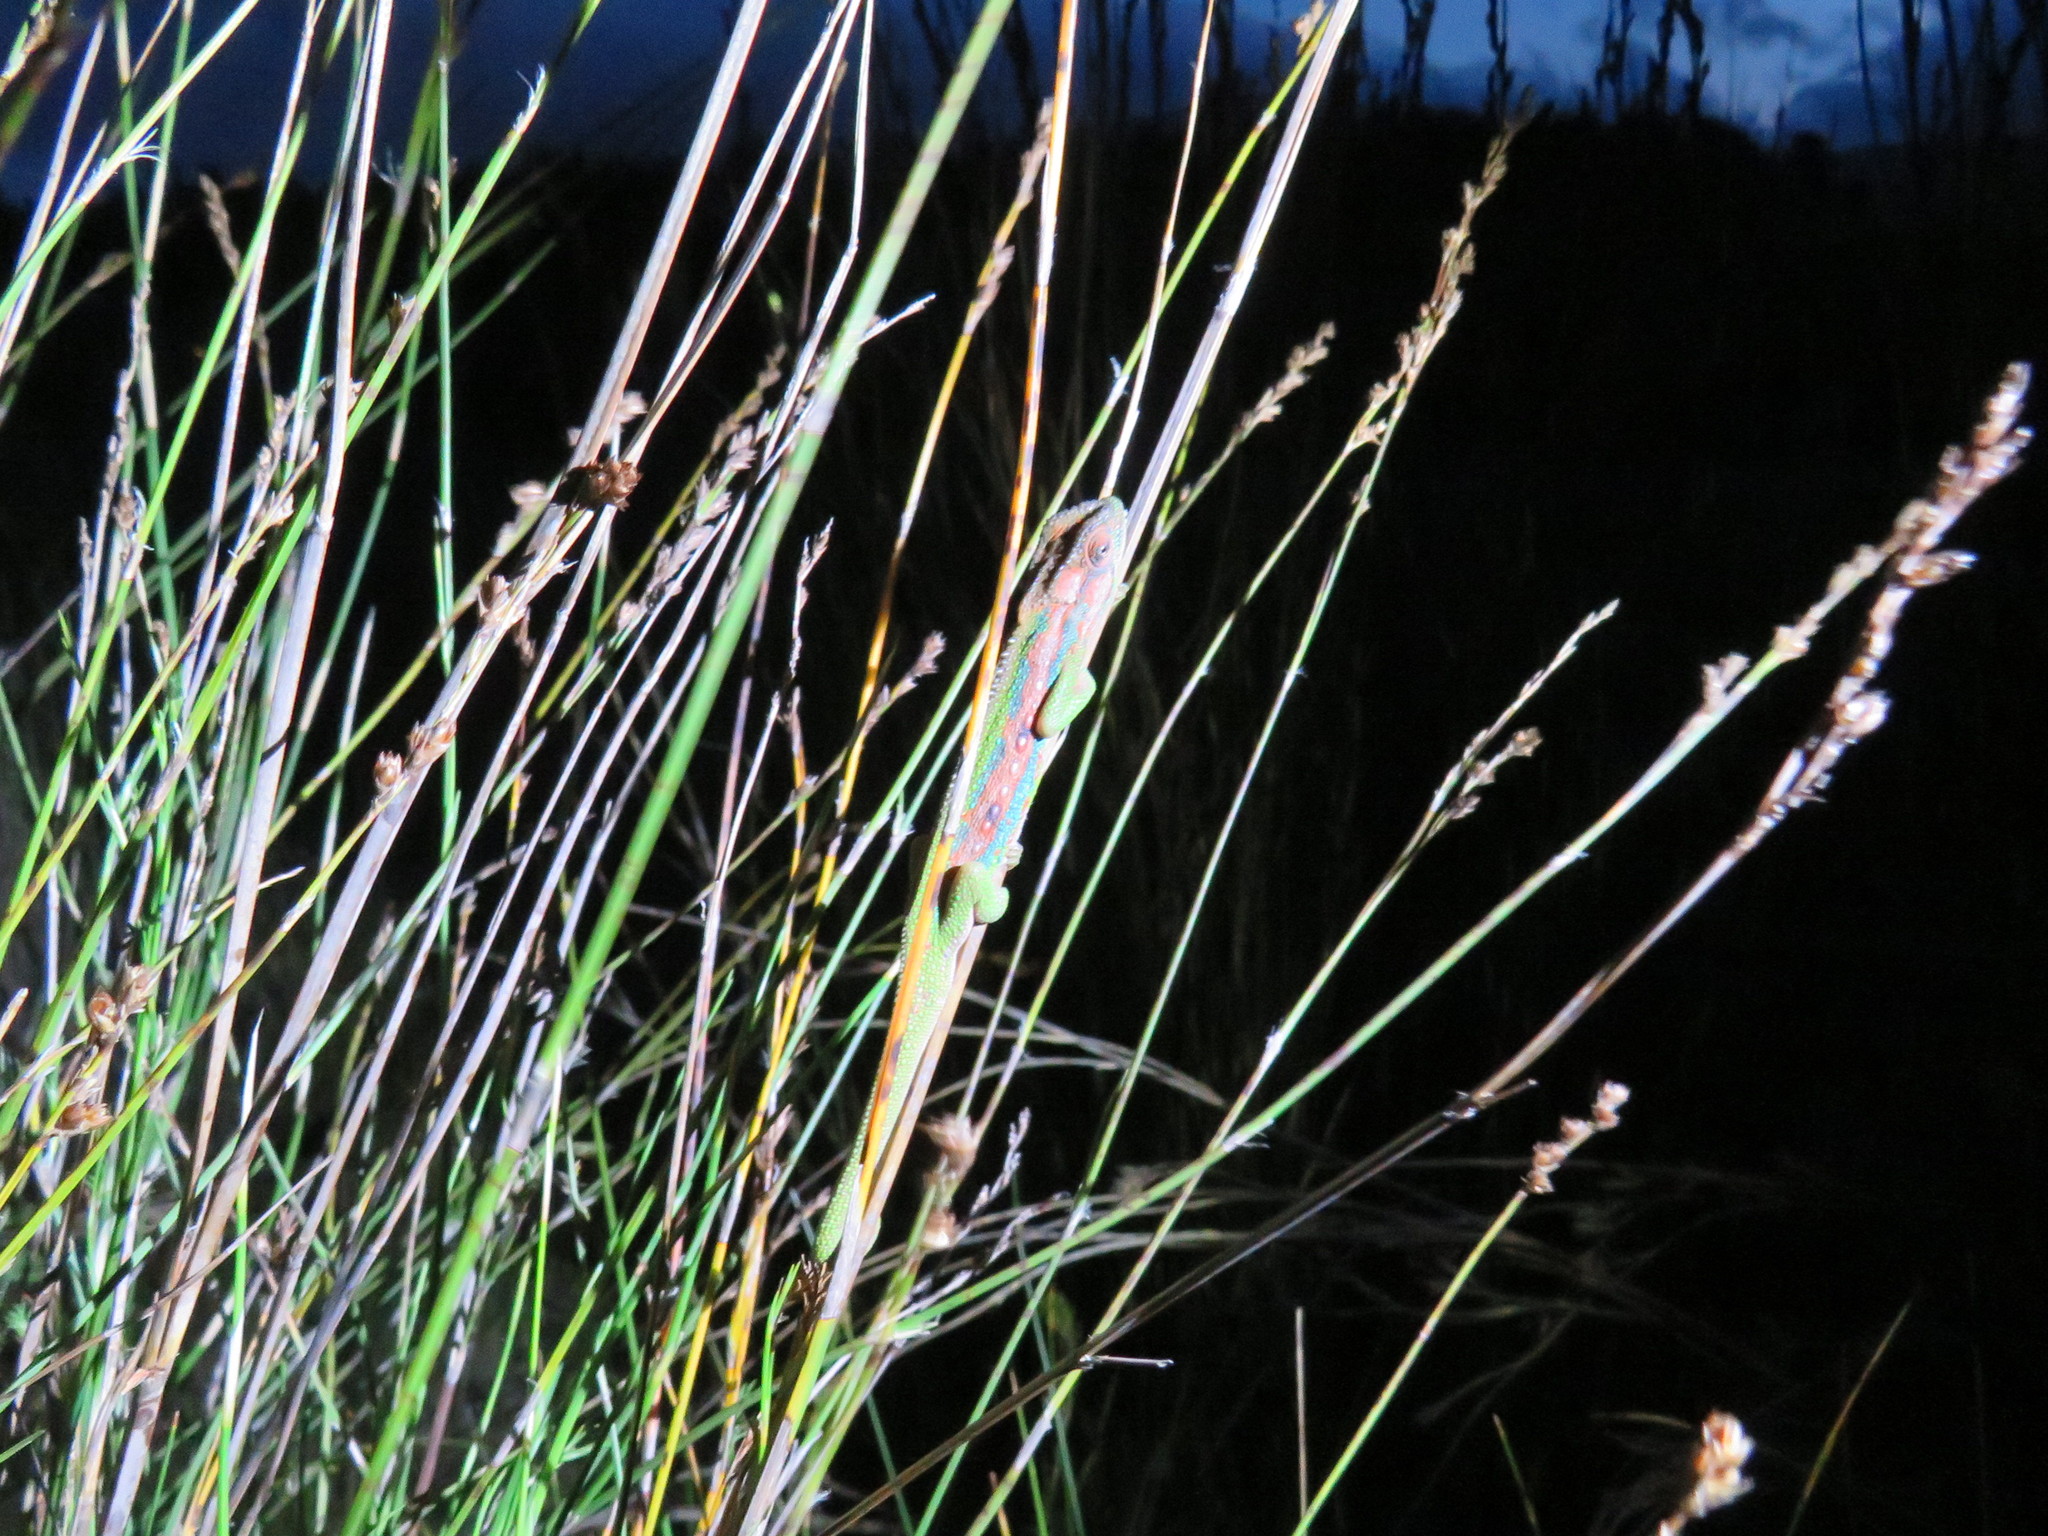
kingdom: Animalia
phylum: Chordata
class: Squamata
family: Chamaeleonidae
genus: Bradypodion
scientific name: Bradypodion pumilum
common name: Cape dwarf chameleon
